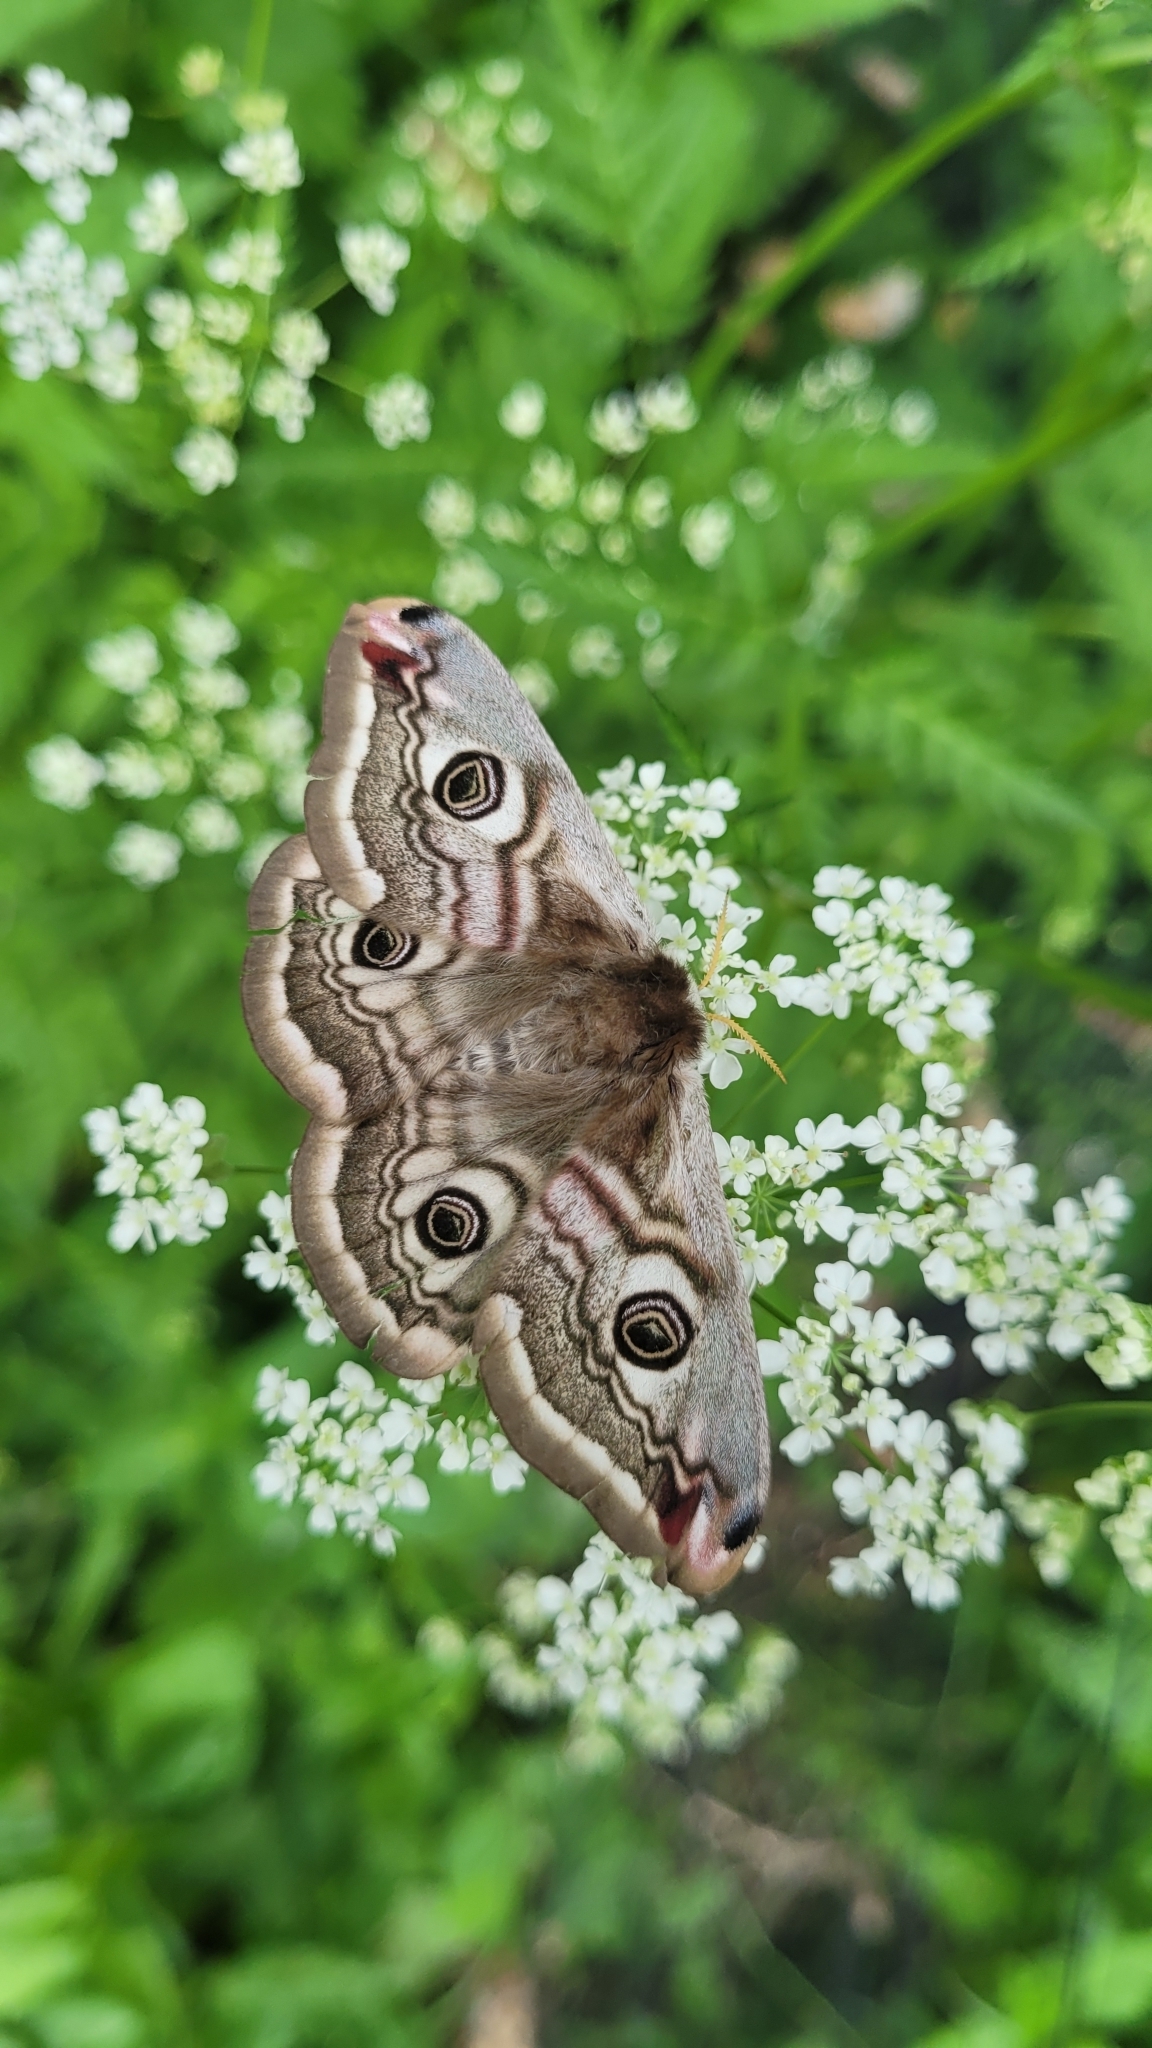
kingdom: Animalia
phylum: Arthropoda
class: Insecta
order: Lepidoptera
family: Saturniidae
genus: Saturnia
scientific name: Saturnia pavonia
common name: Emperor moth
